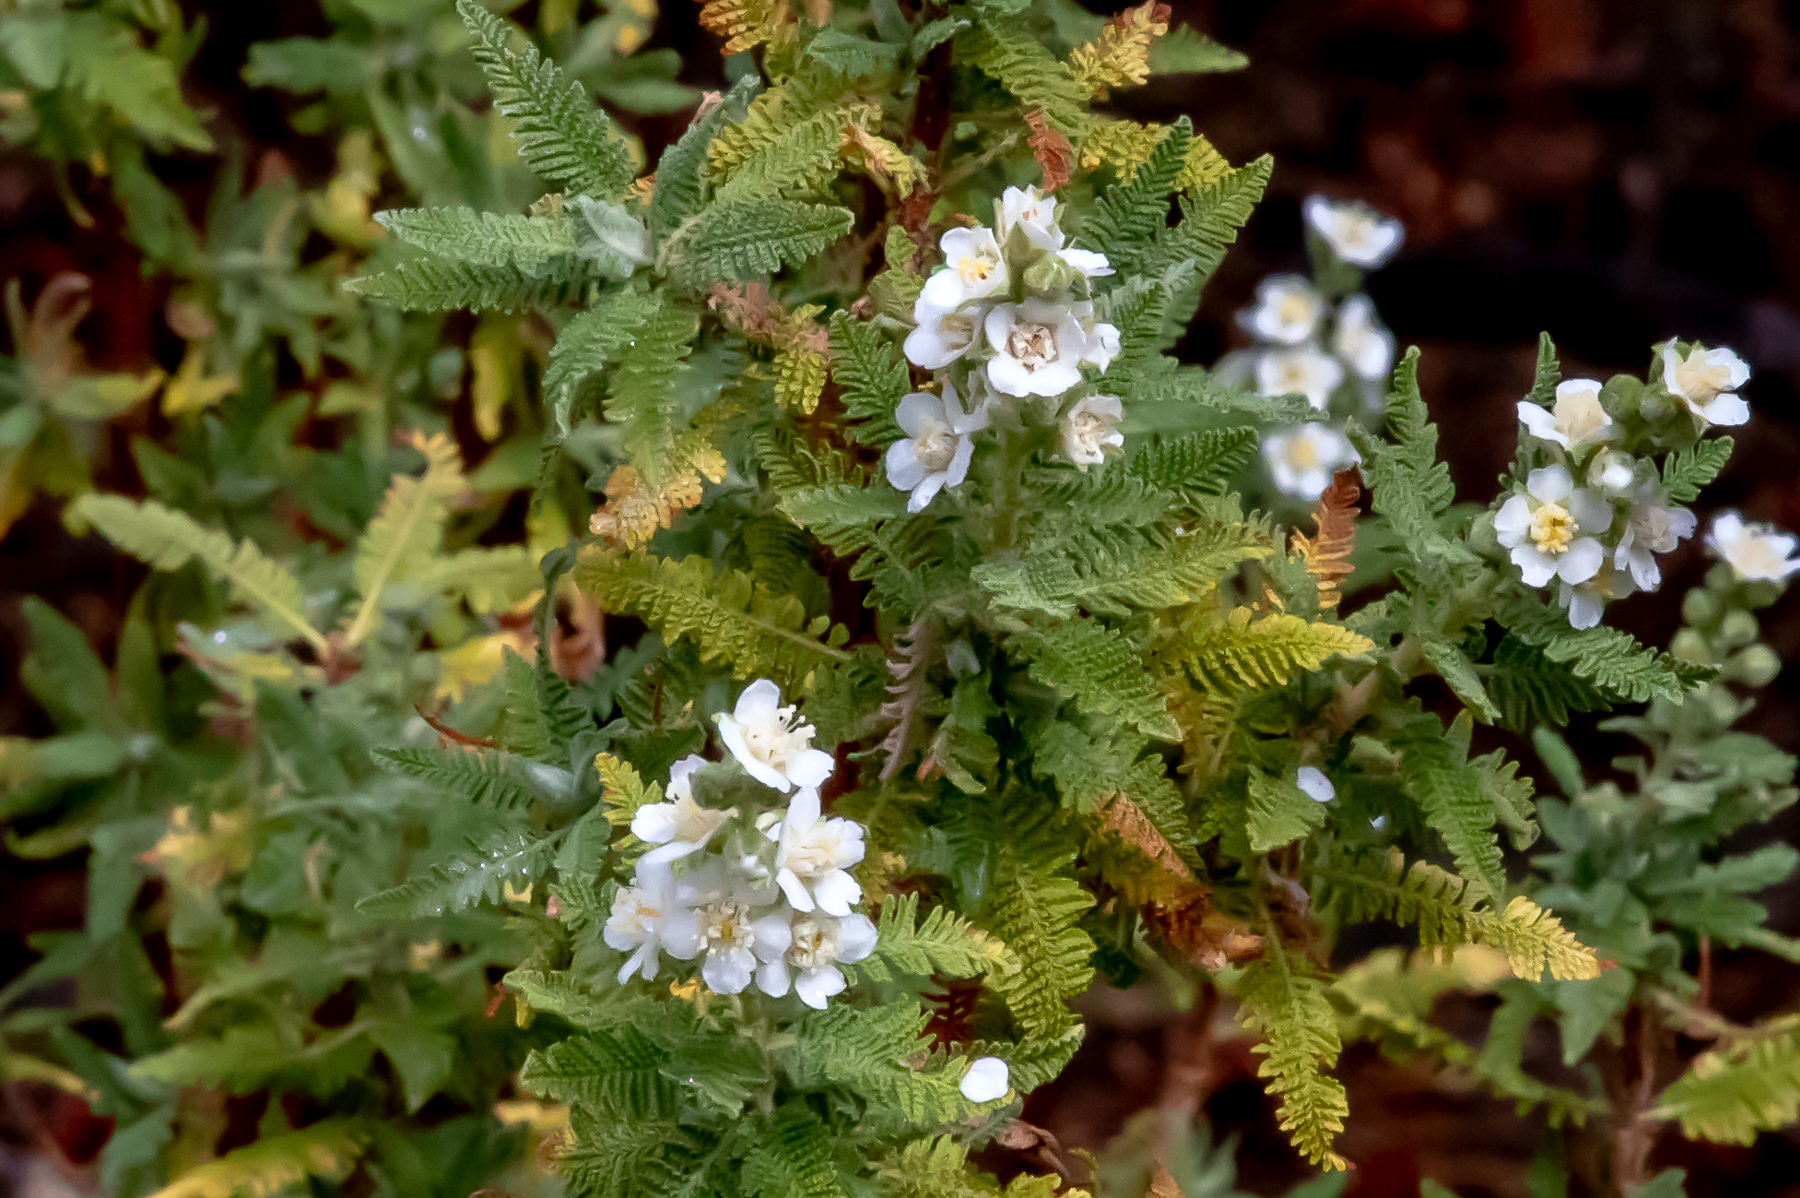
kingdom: Plantae
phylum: Tracheophyta
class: Magnoliopsida
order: Rosales
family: Rosaceae
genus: Chamaebatiaria
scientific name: Chamaebatiaria millefolium
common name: Fernbush
